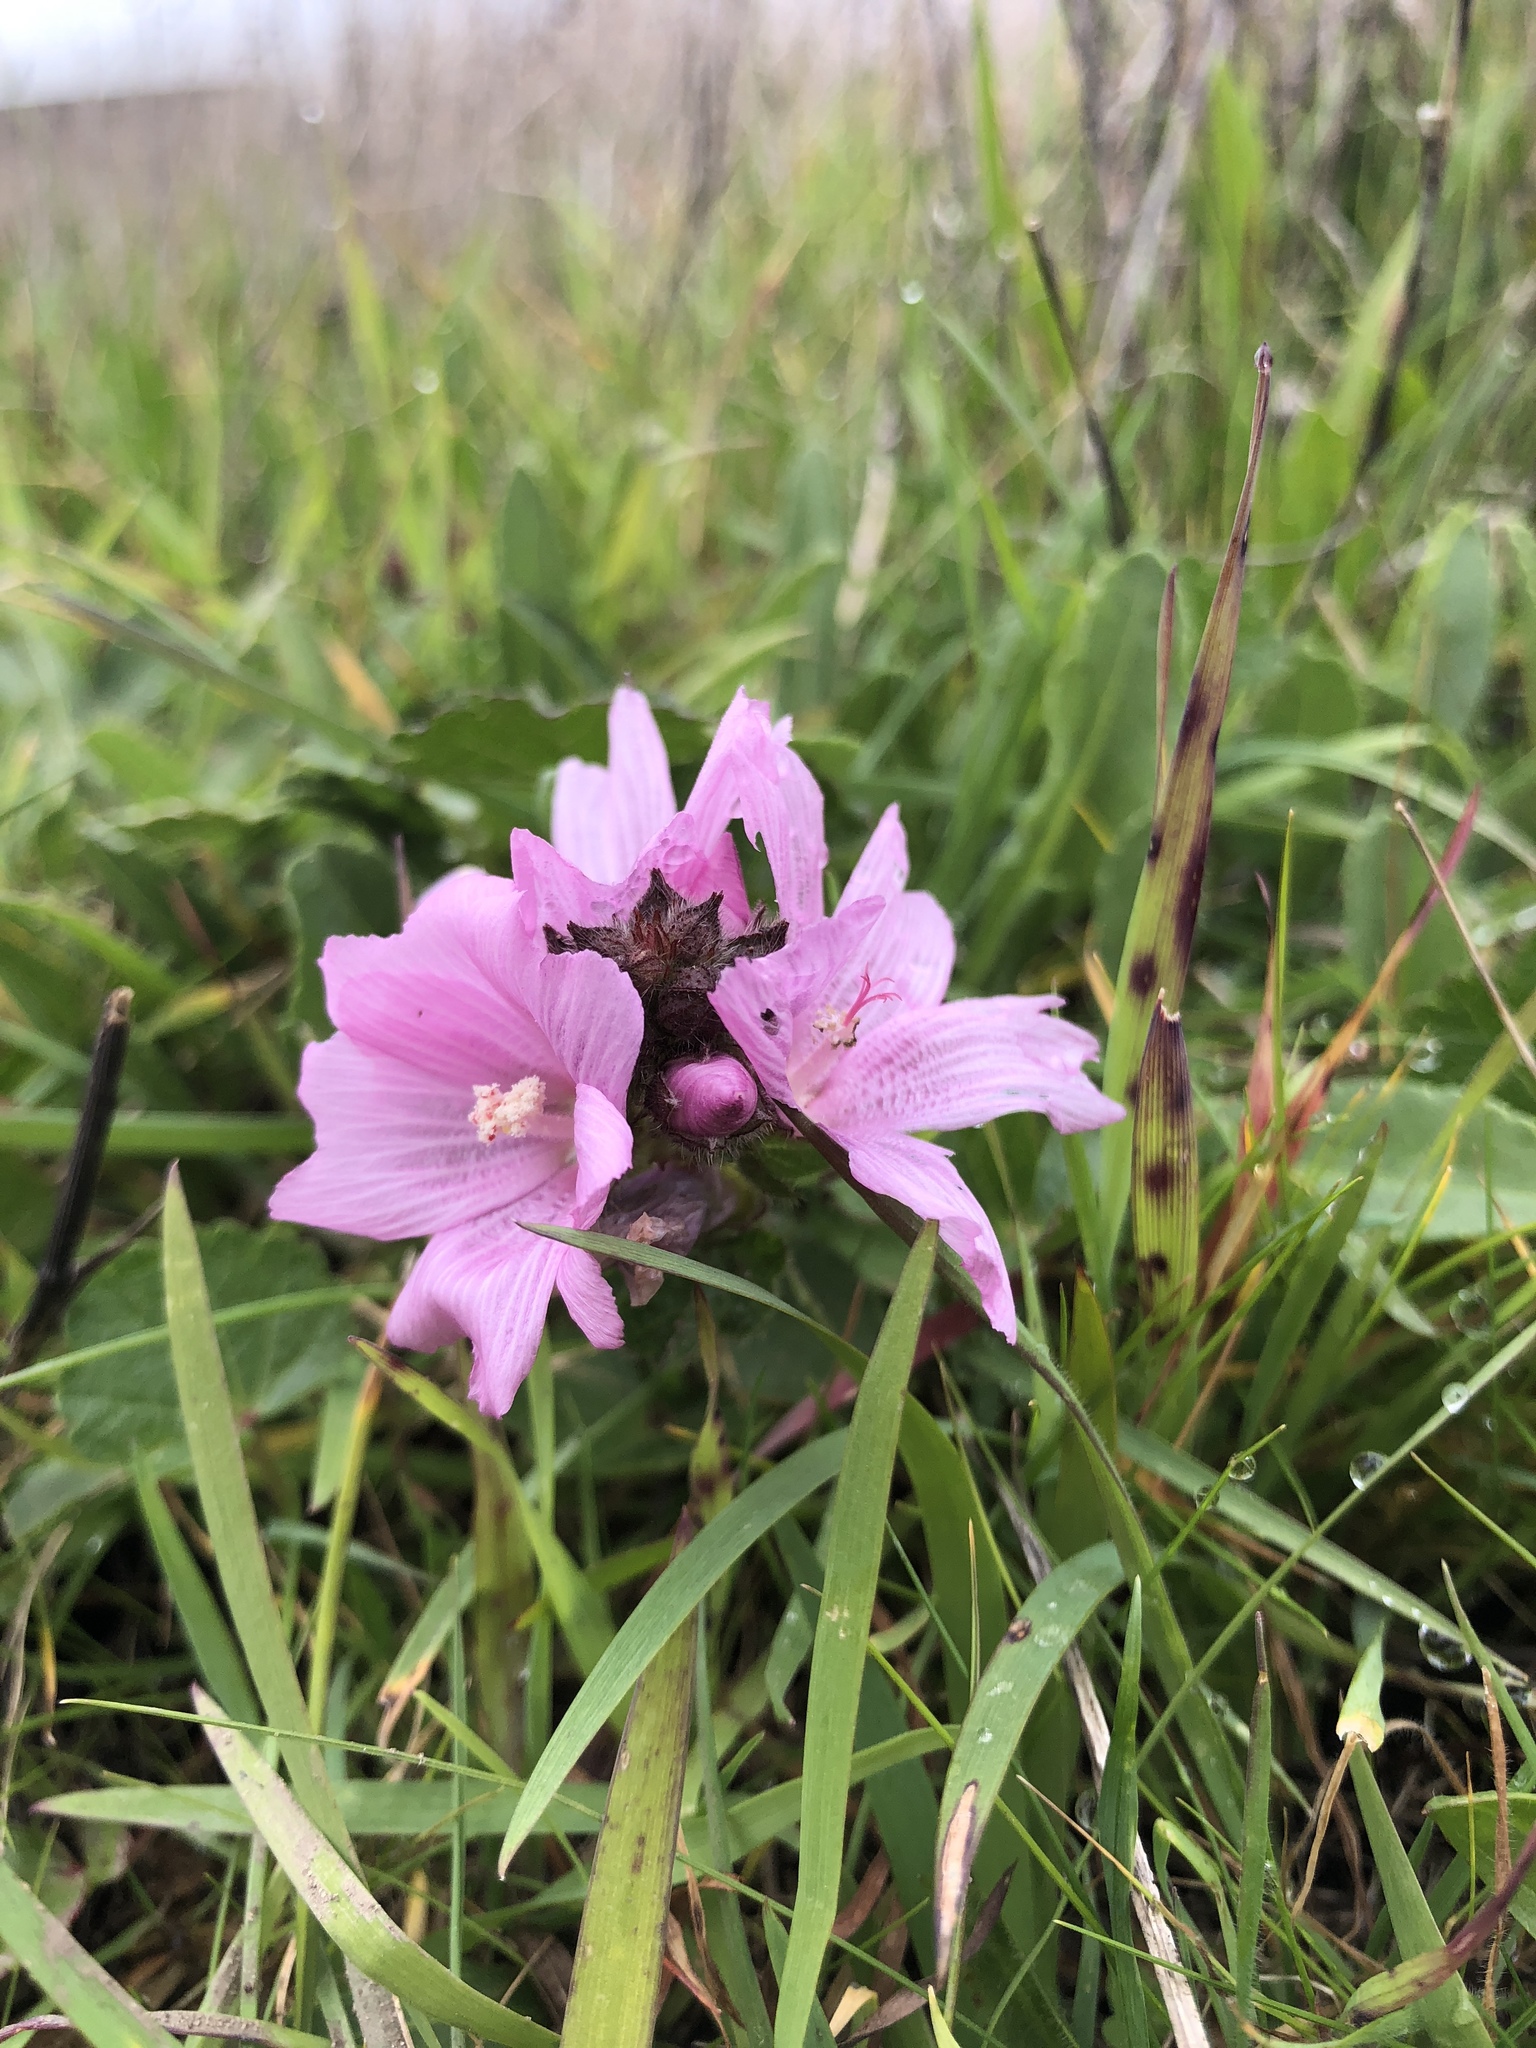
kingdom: Plantae
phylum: Tracheophyta
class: Magnoliopsida
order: Malvales
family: Malvaceae
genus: Sidalcea
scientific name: Sidalcea malviflora
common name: Greek mallow
